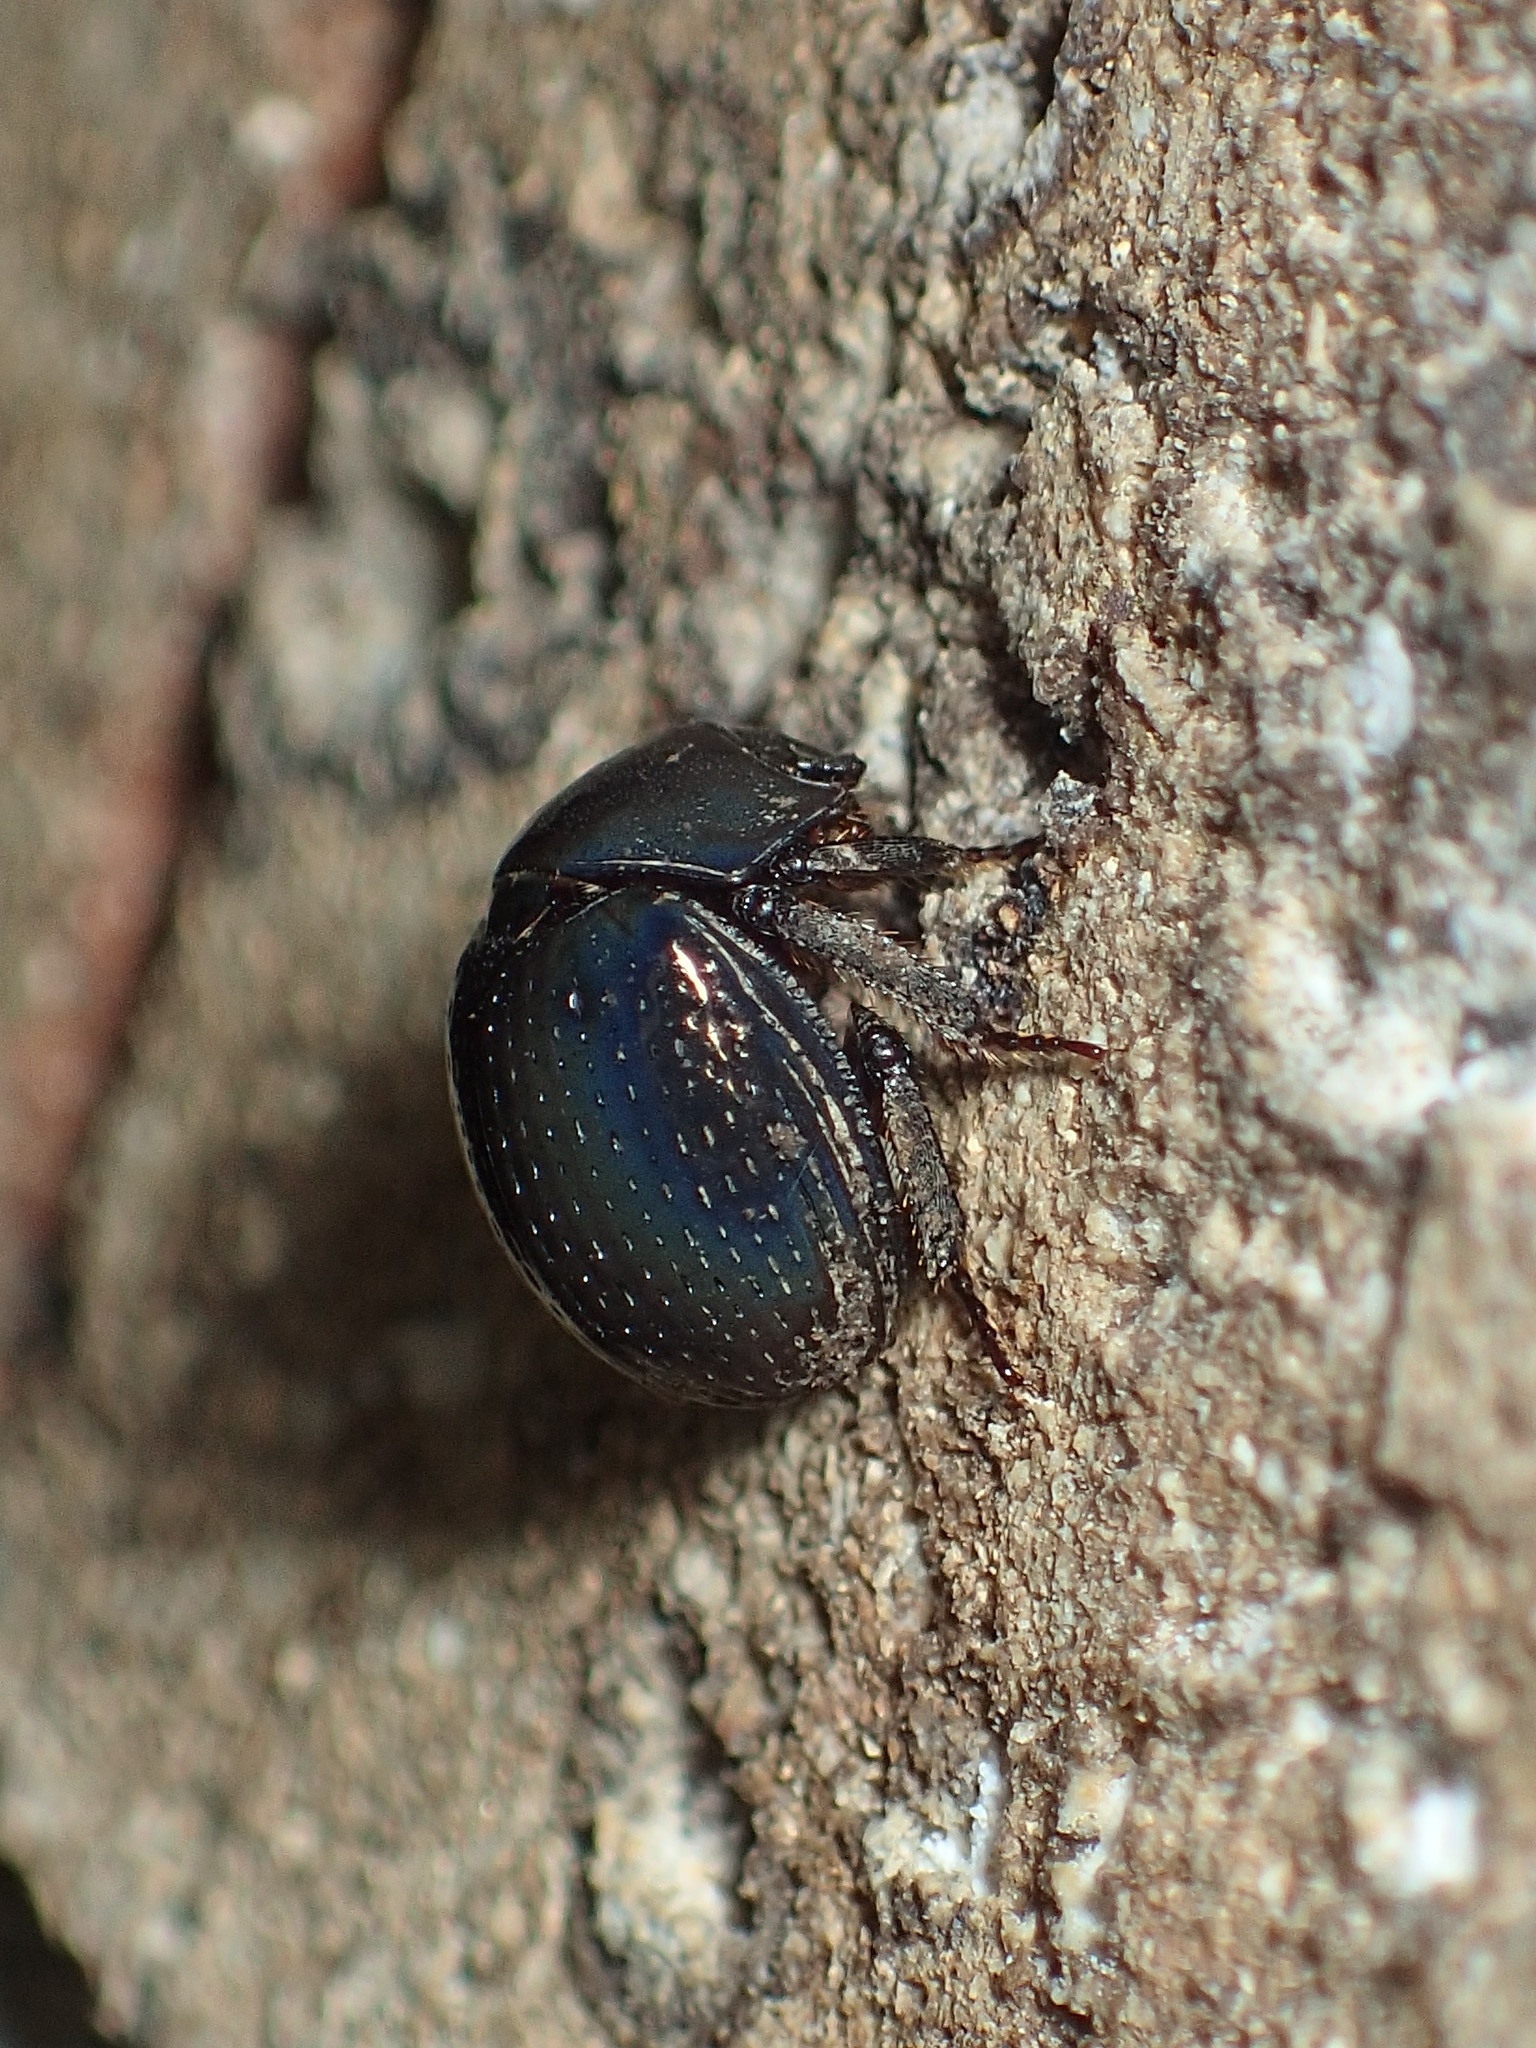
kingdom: Animalia
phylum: Arthropoda
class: Insecta
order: Coleoptera
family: Hybosoridae
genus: Germarostes
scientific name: Germarostes globosus
